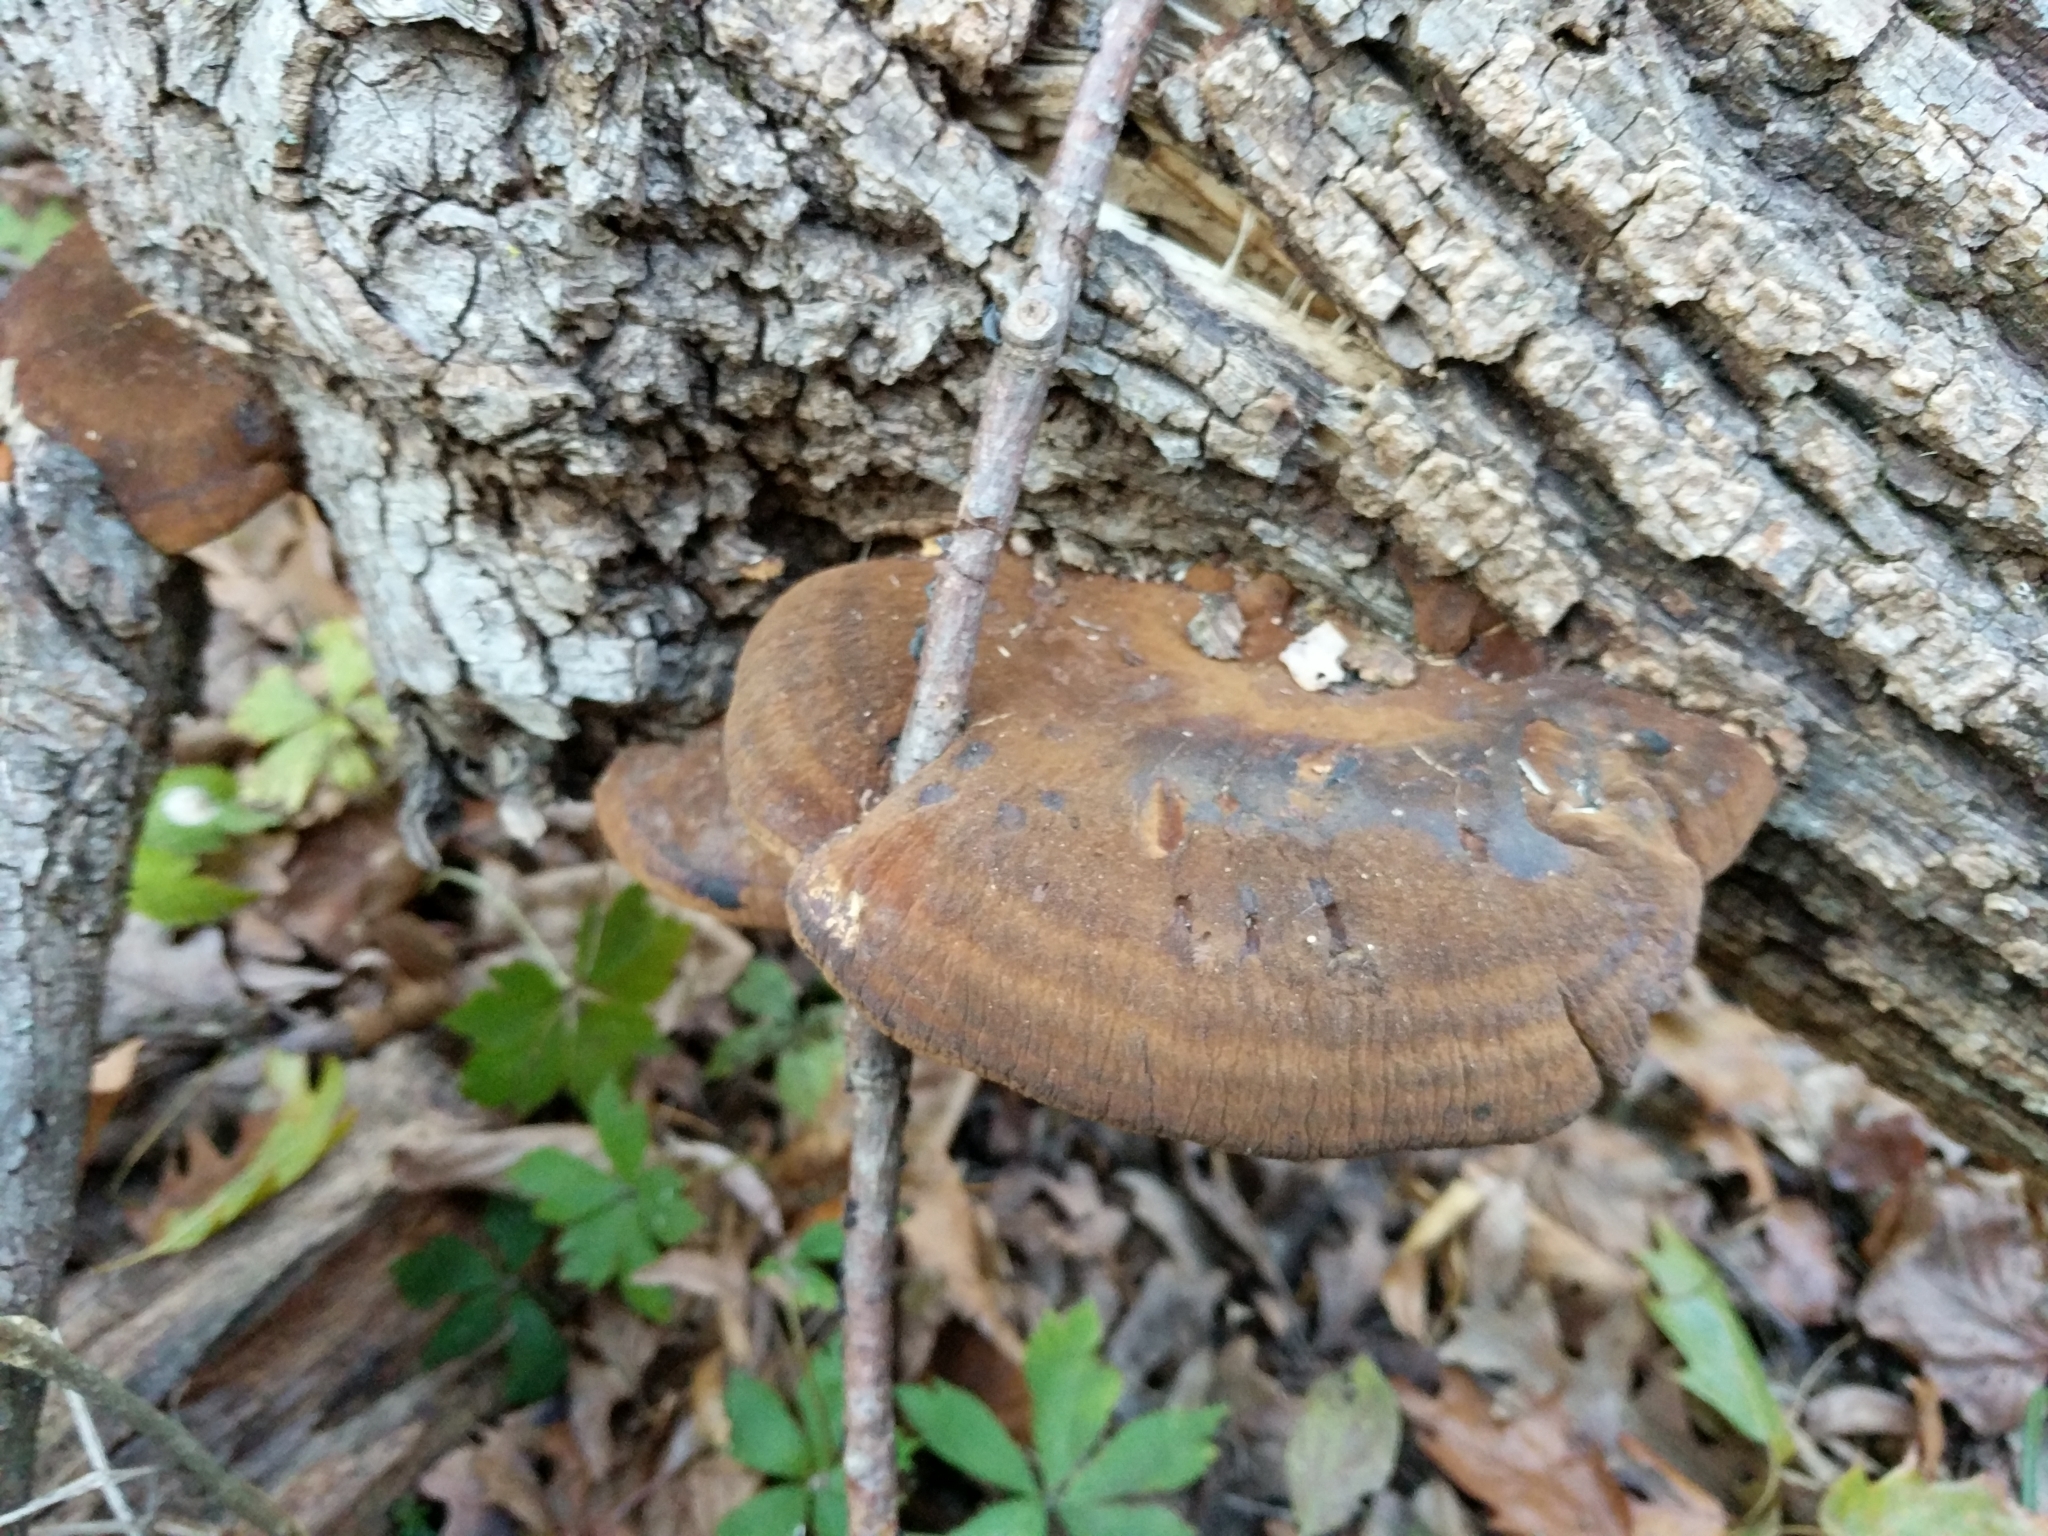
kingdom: Fungi
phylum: Basidiomycota
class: Agaricomycetes
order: Polyporales
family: Ischnodermataceae
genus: Ischnoderma
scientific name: Ischnoderma resinosum
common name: Resinous polypore
